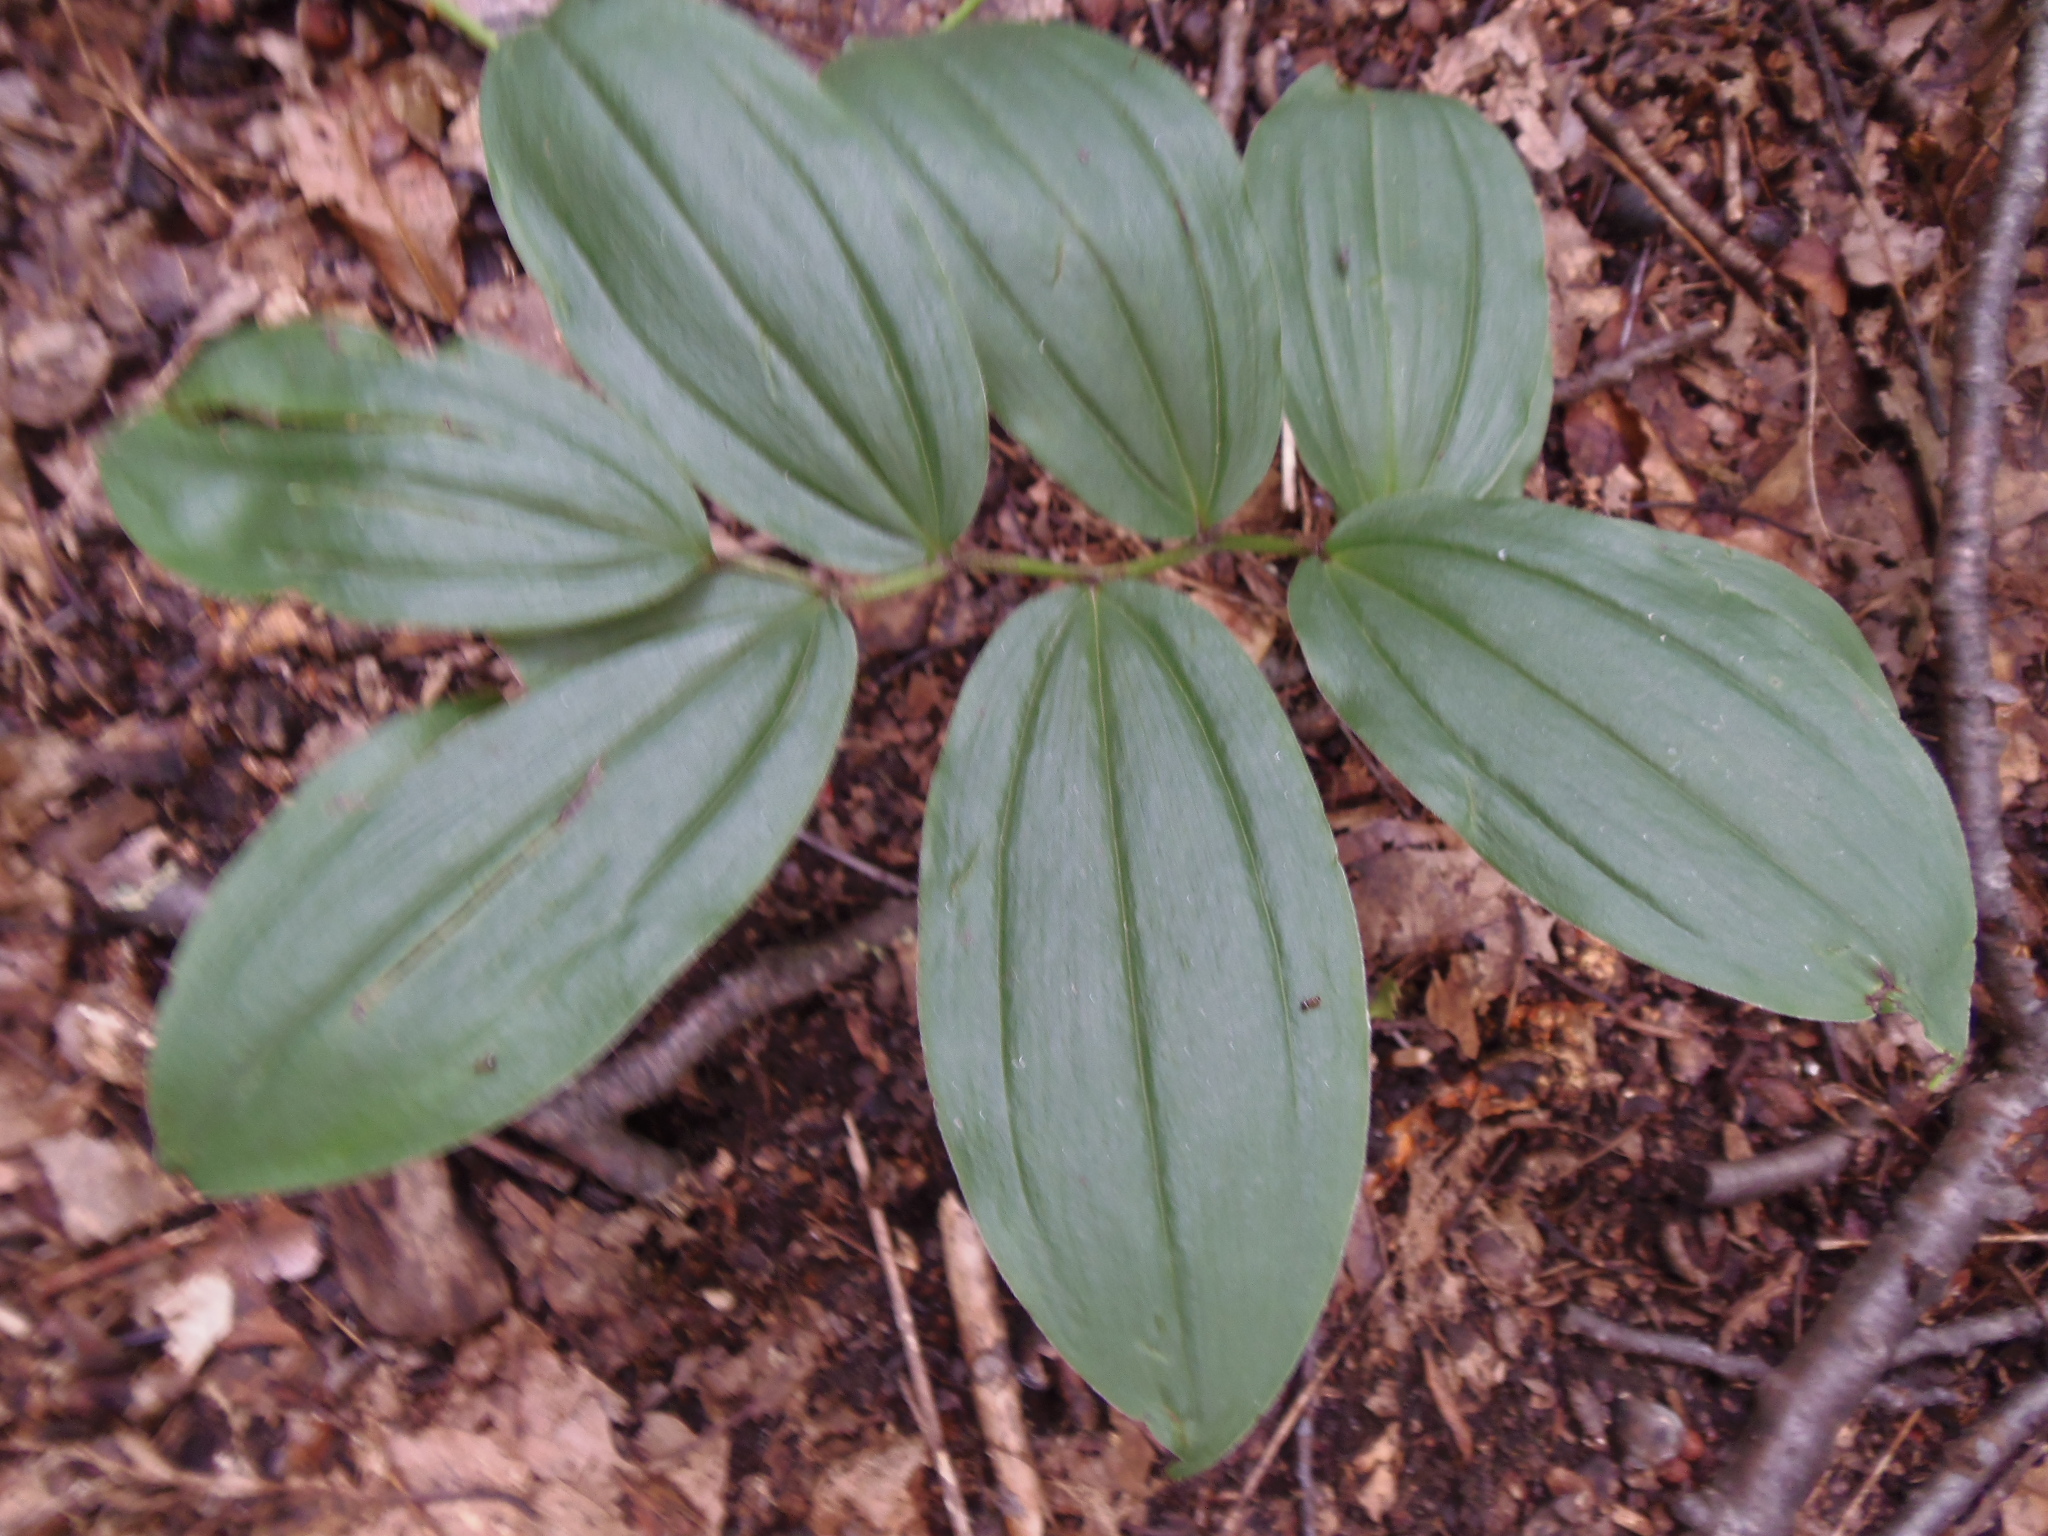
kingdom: Plantae
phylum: Tracheophyta
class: Liliopsida
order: Asparagales
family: Asparagaceae
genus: Maianthemum
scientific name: Maianthemum racemosum
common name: False spikenard
